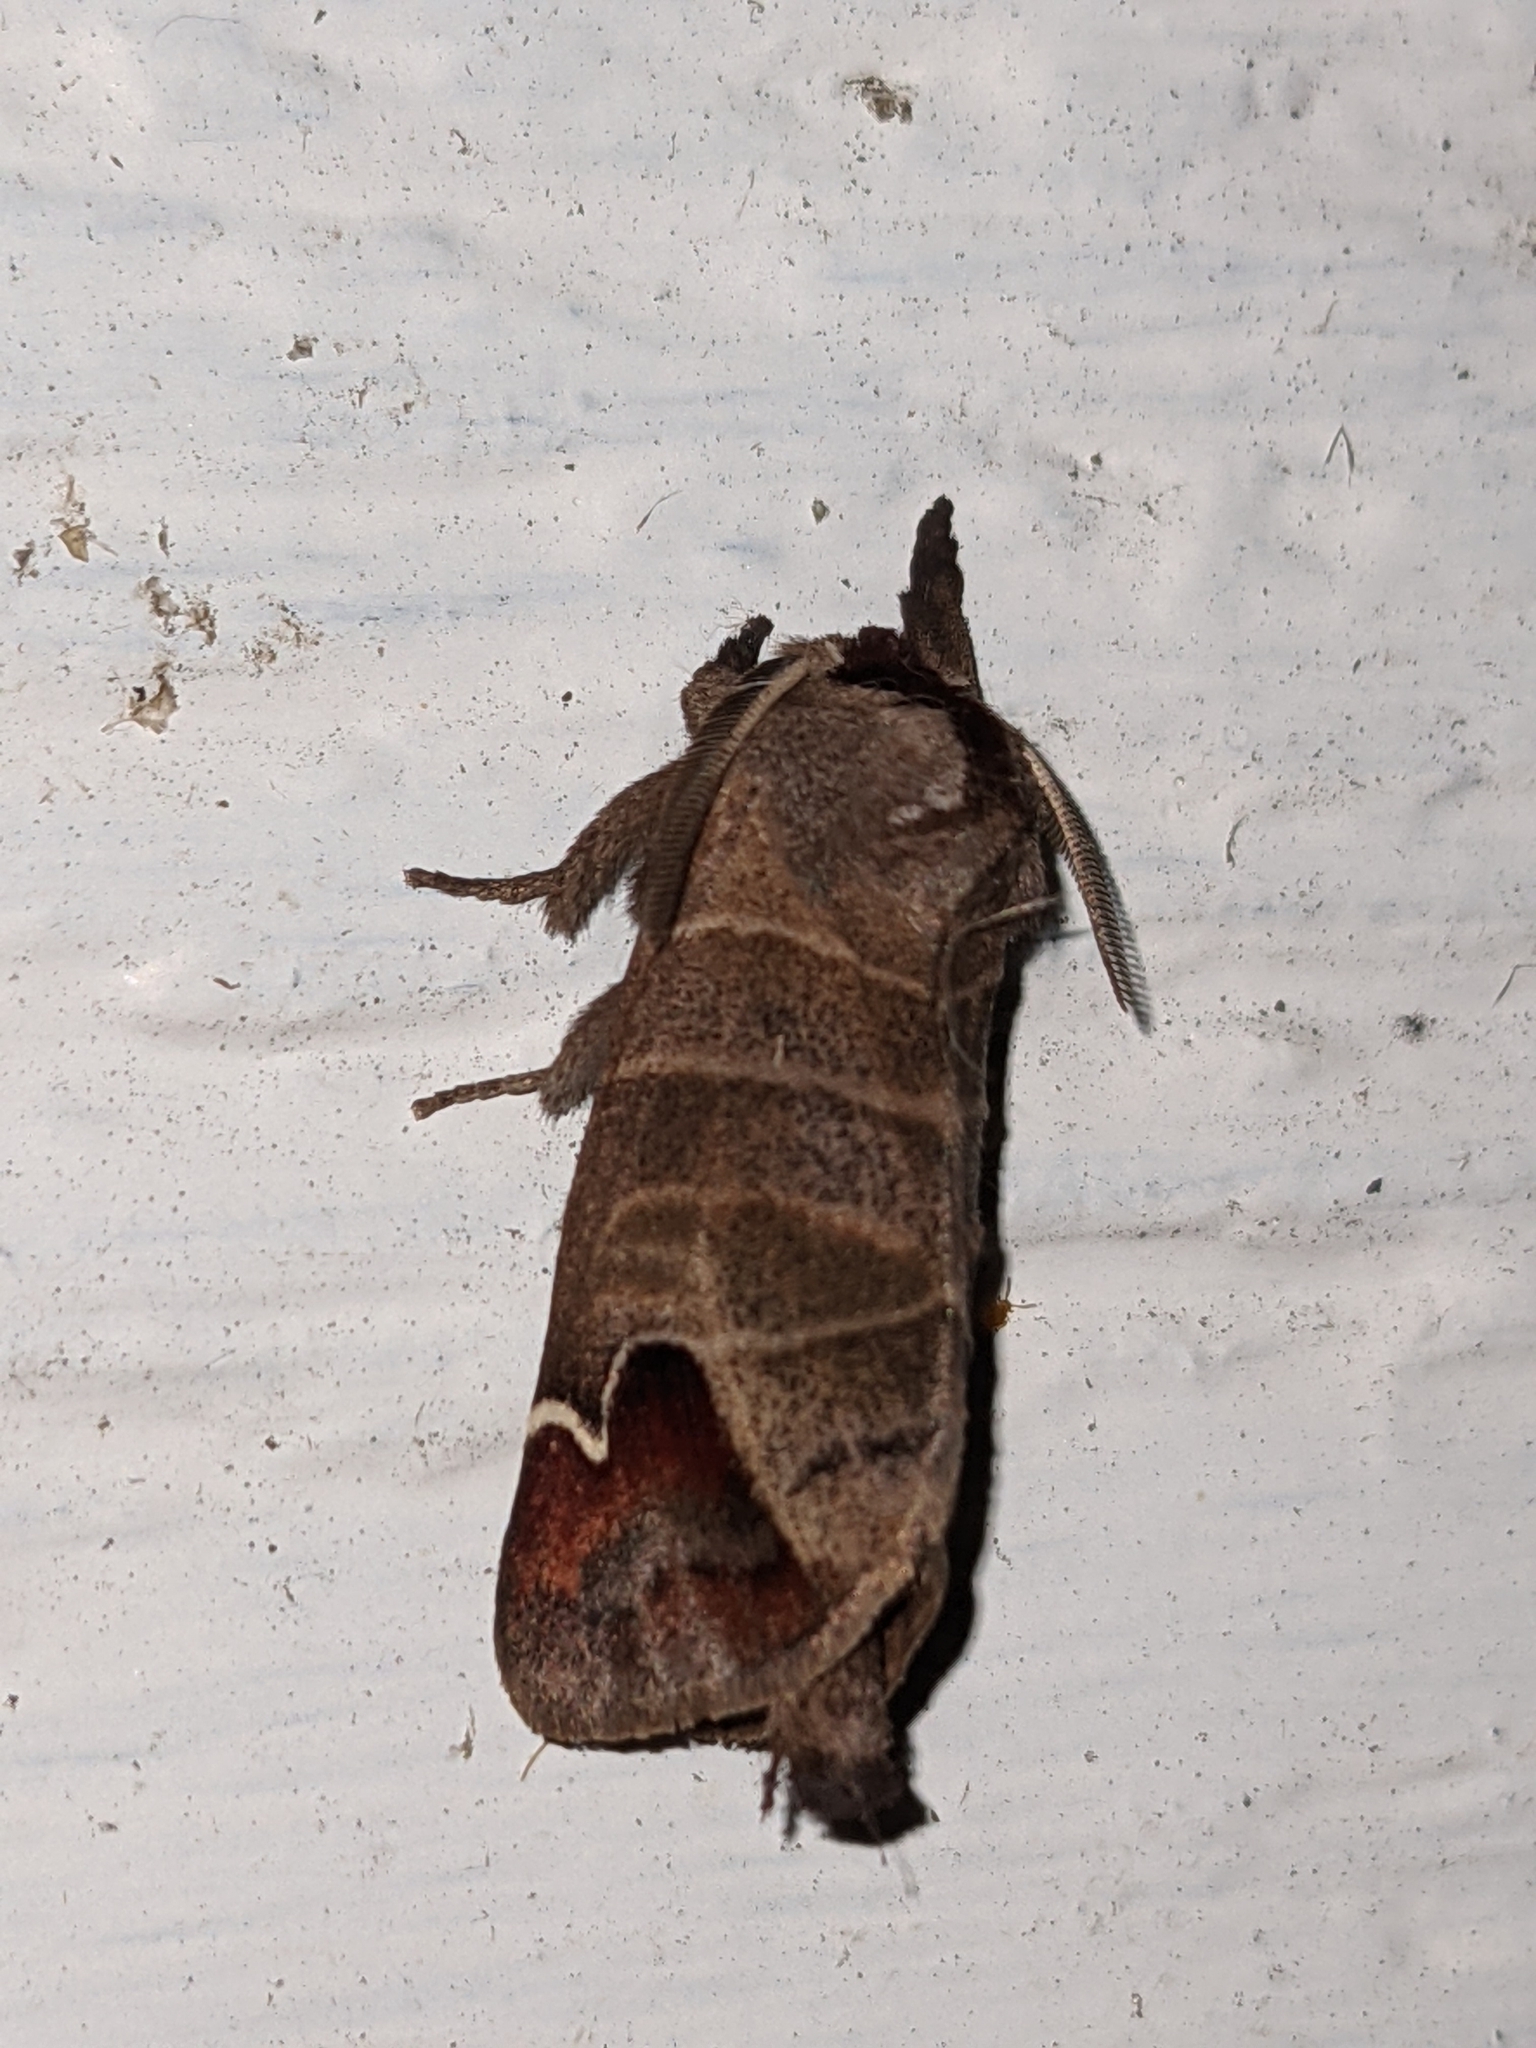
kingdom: Animalia
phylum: Arthropoda
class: Insecta
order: Lepidoptera
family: Notodontidae
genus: Clostera
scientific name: Clostera albosigma
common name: Sigmoid prominent
